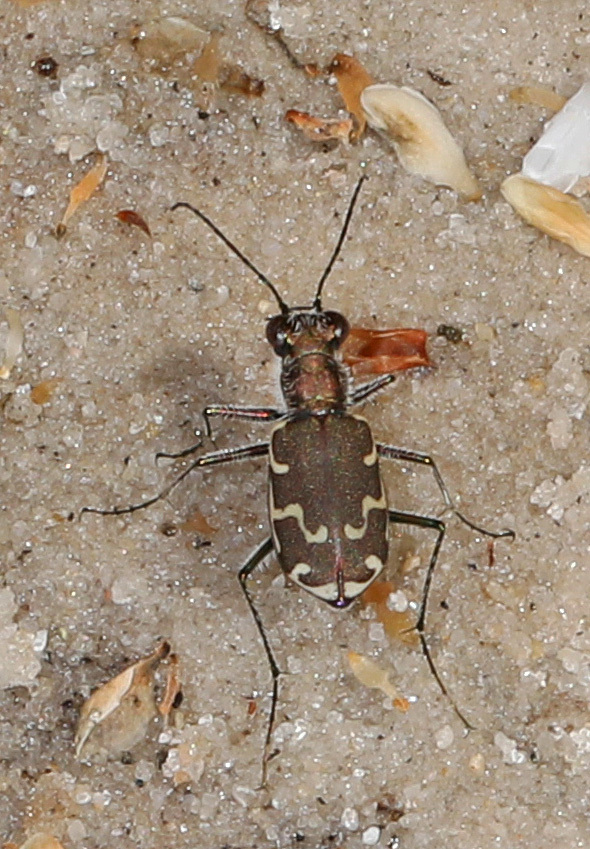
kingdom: Animalia
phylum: Arthropoda
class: Insecta
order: Coleoptera
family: Carabidae
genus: Cicindela
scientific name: Cicindela repanda
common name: Bronzed tiger beetle
